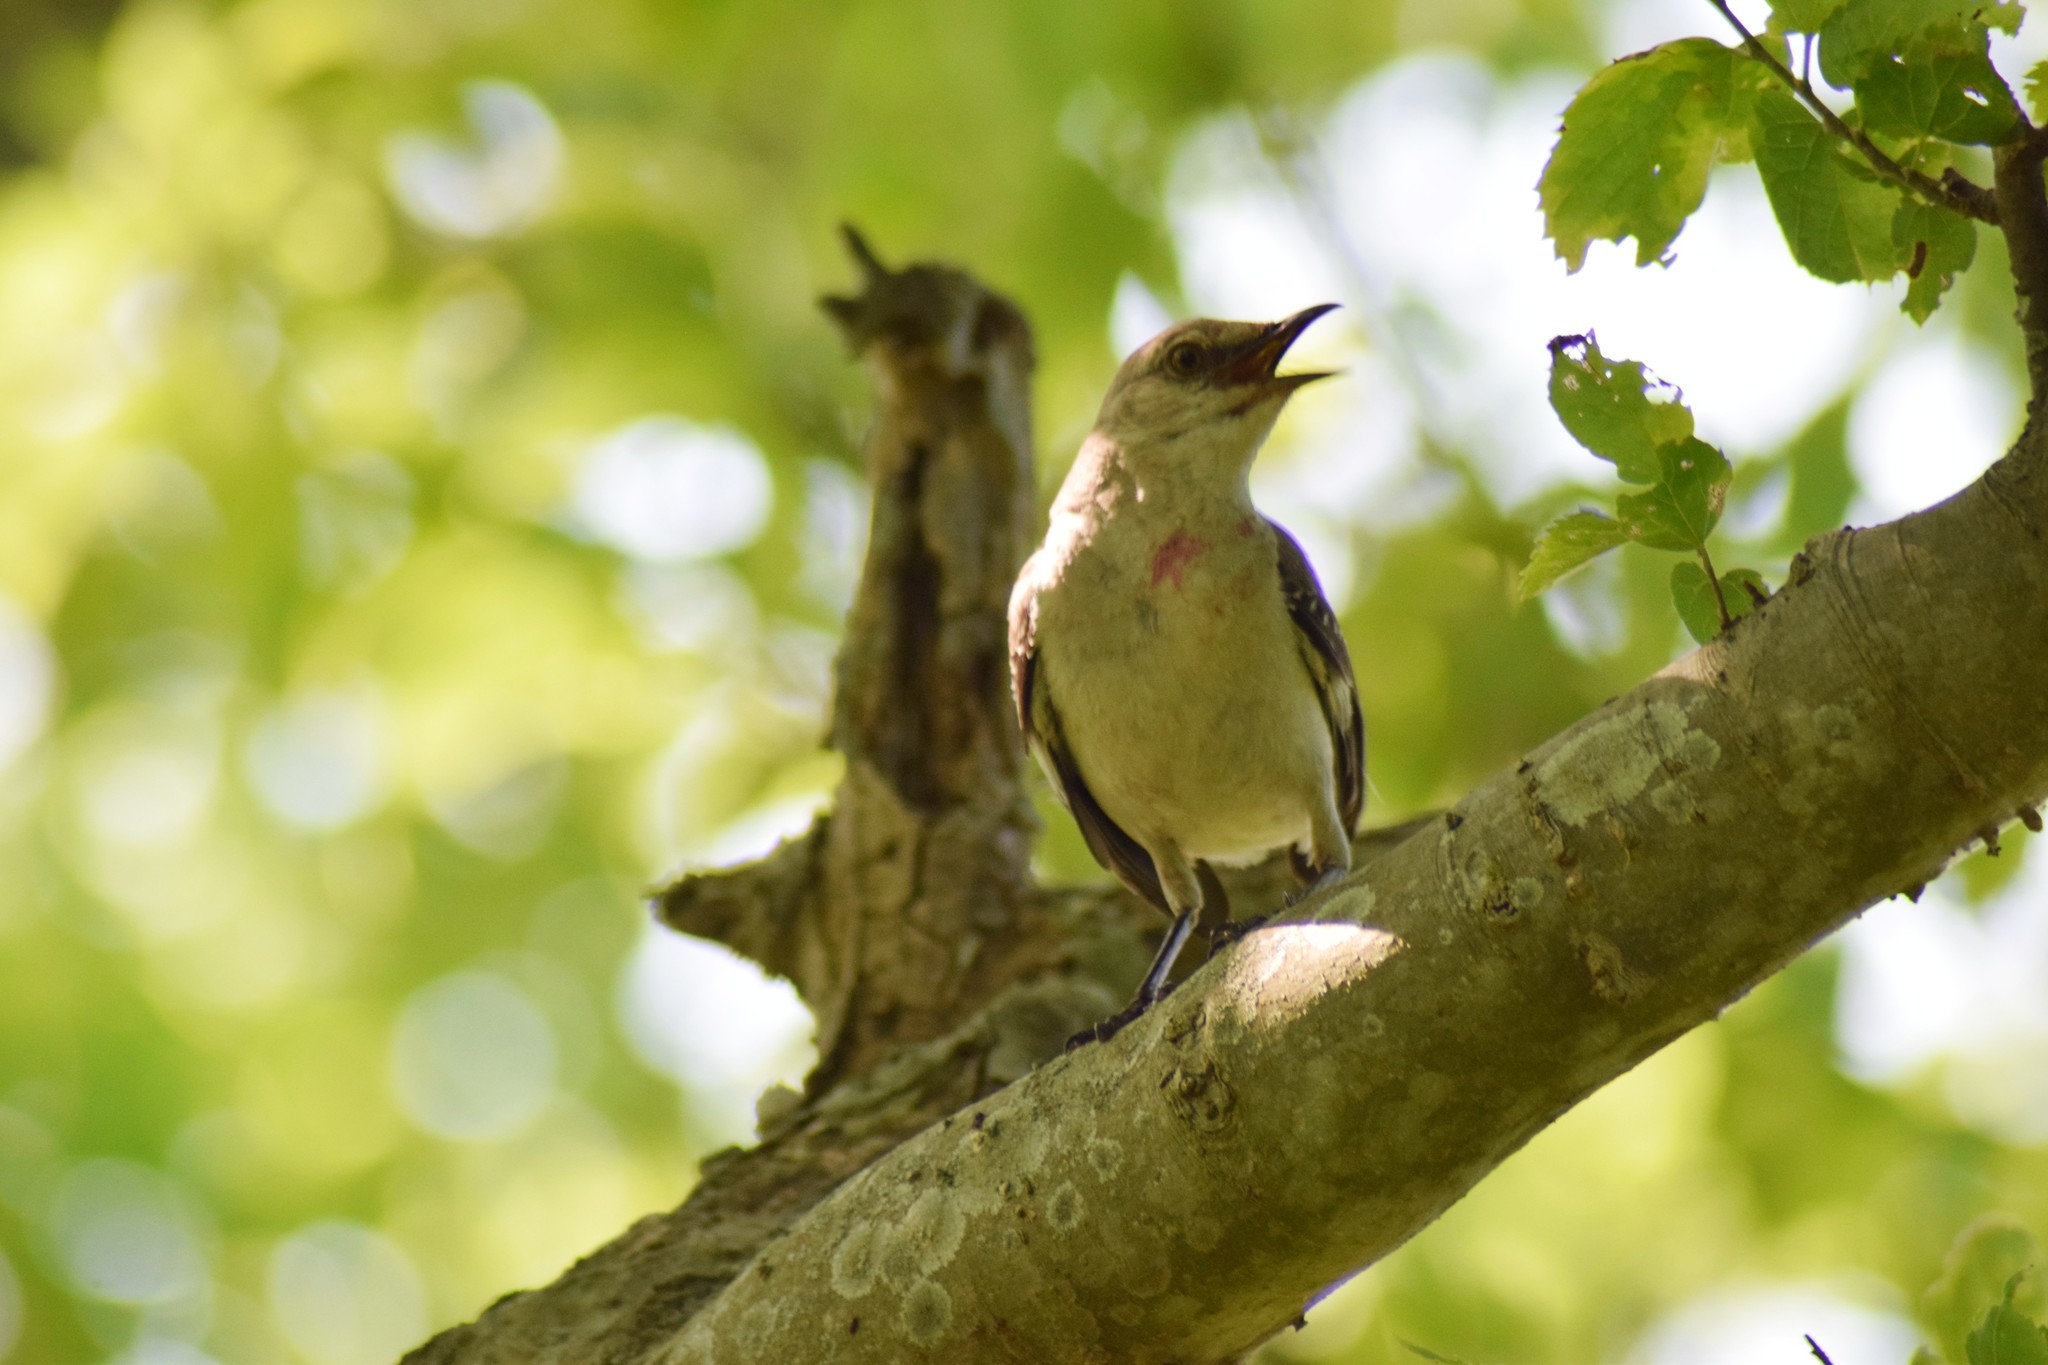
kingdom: Animalia
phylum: Chordata
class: Aves
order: Passeriformes
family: Mimidae
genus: Mimus
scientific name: Mimus polyglottos
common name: Northern mockingbird
